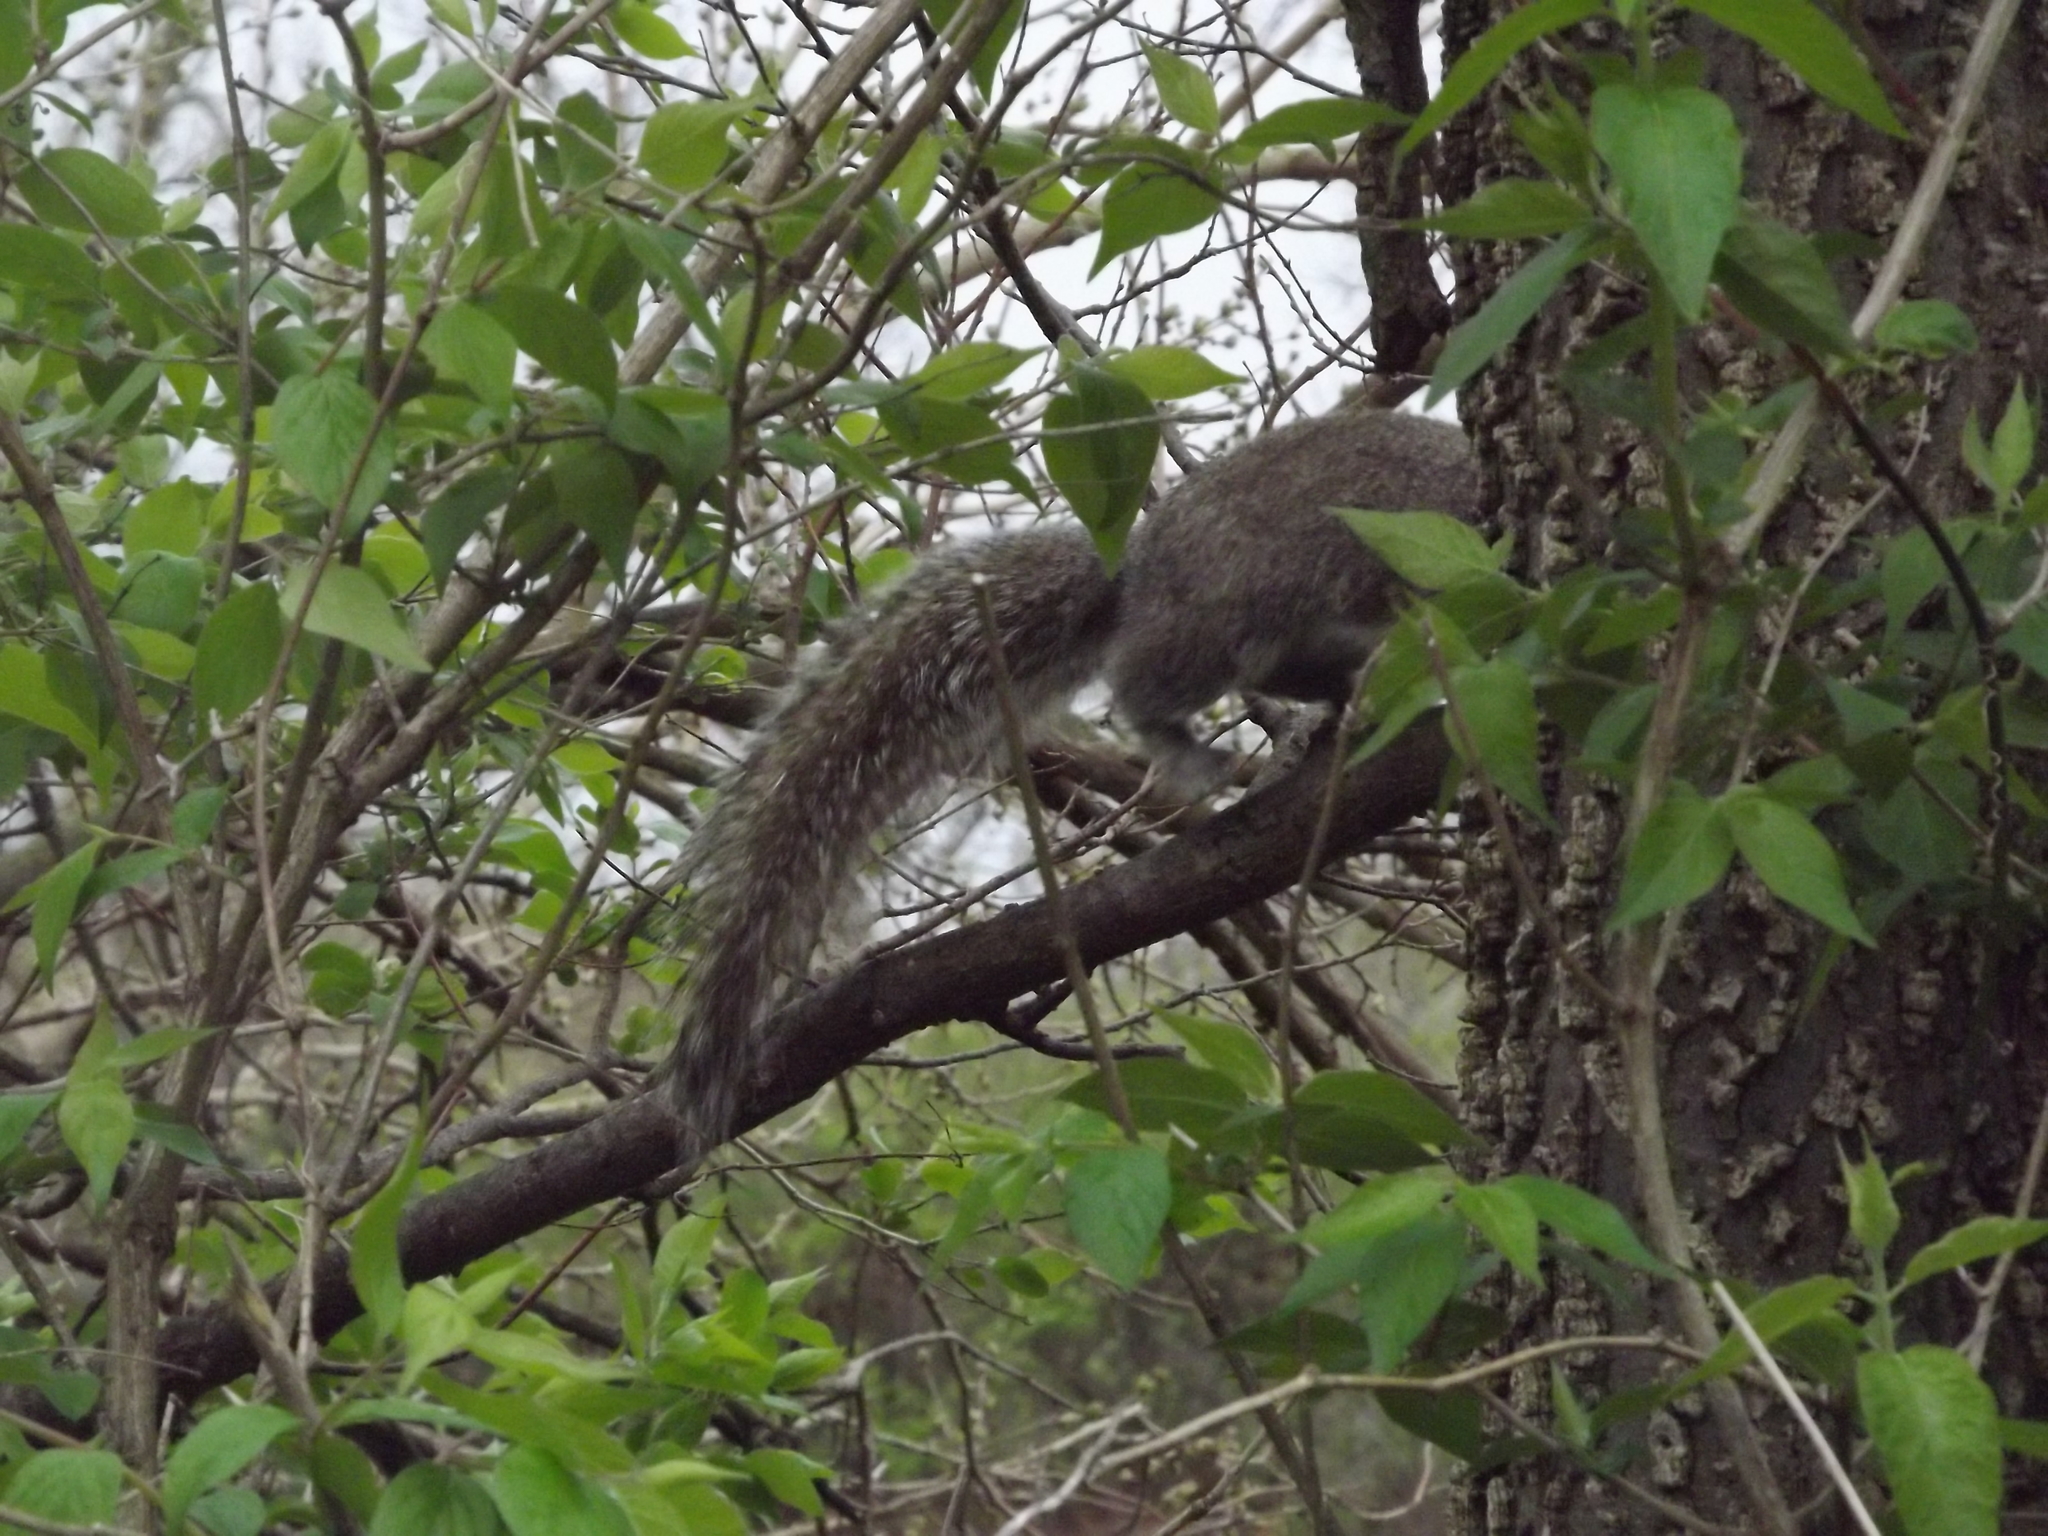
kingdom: Animalia
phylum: Chordata
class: Mammalia
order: Rodentia
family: Sciuridae
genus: Sciurus
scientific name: Sciurus carolinensis
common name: Eastern gray squirrel
